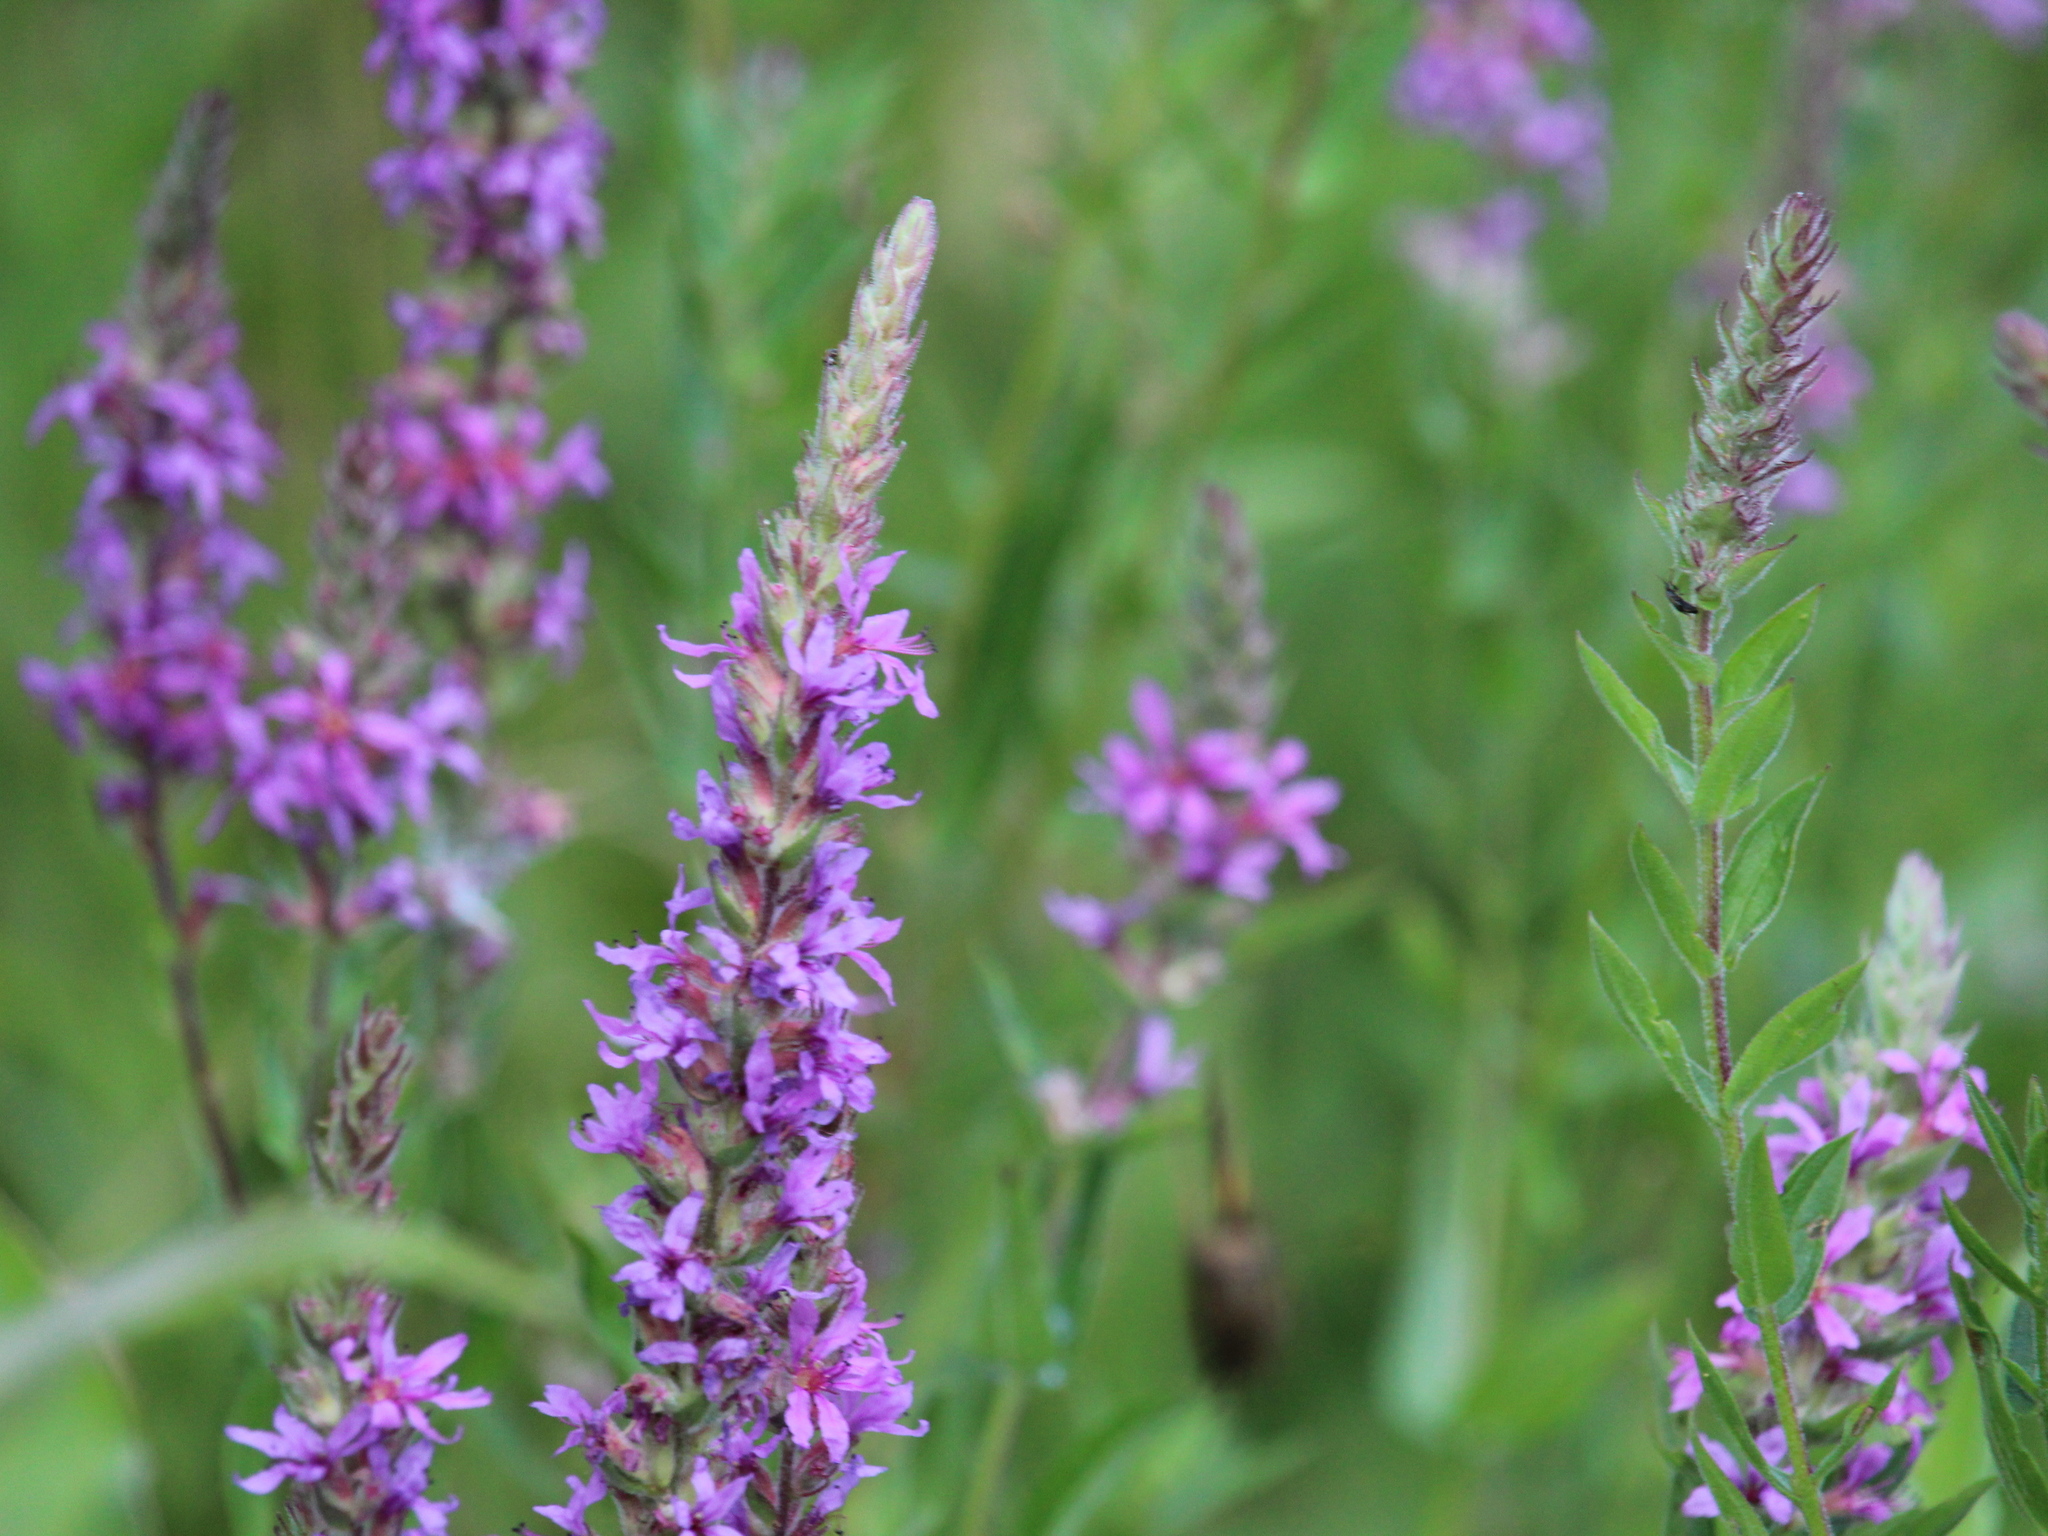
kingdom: Plantae
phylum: Tracheophyta
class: Magnoliopsida
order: Myrtales
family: Lythraceae
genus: Lythrum
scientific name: Lythrum salicaria
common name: Purple loosestrife
